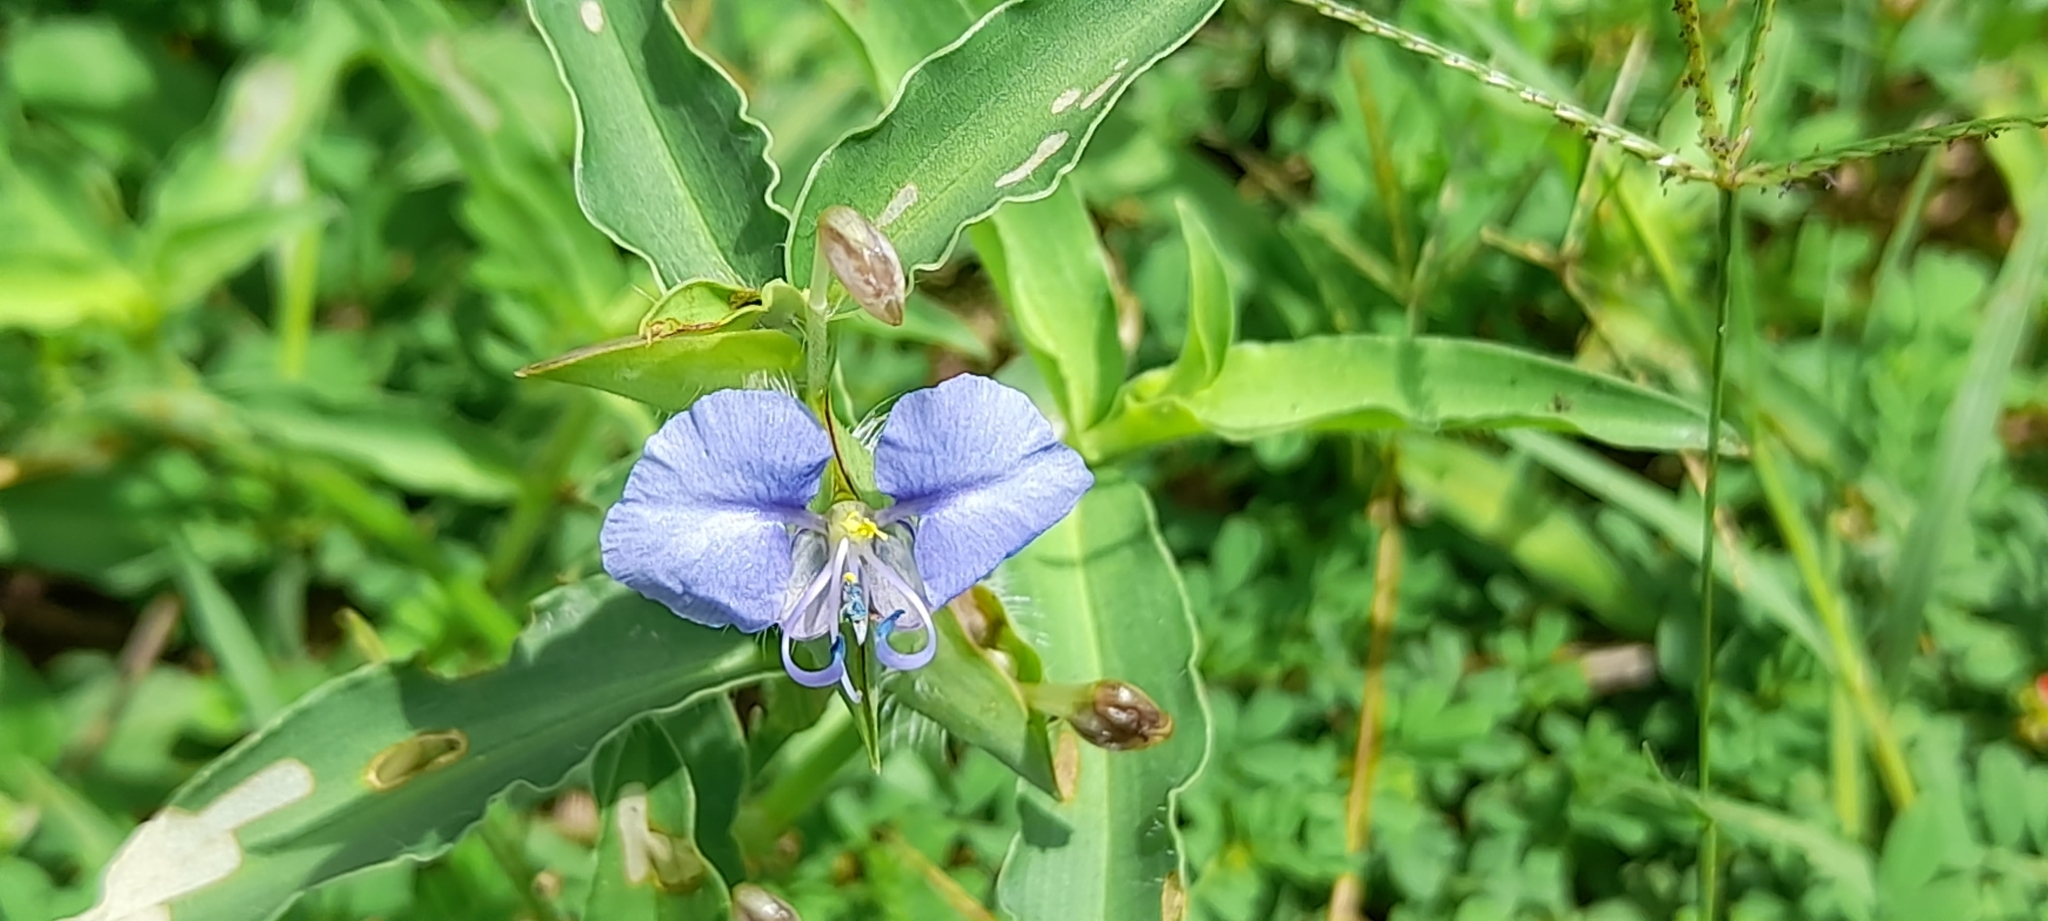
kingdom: Plantae
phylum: Tracheophyta
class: Liliopsida
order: Commelinales
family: Commelinaceae
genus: Commelina
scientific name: Commelina forskaolii
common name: Rat's ear
